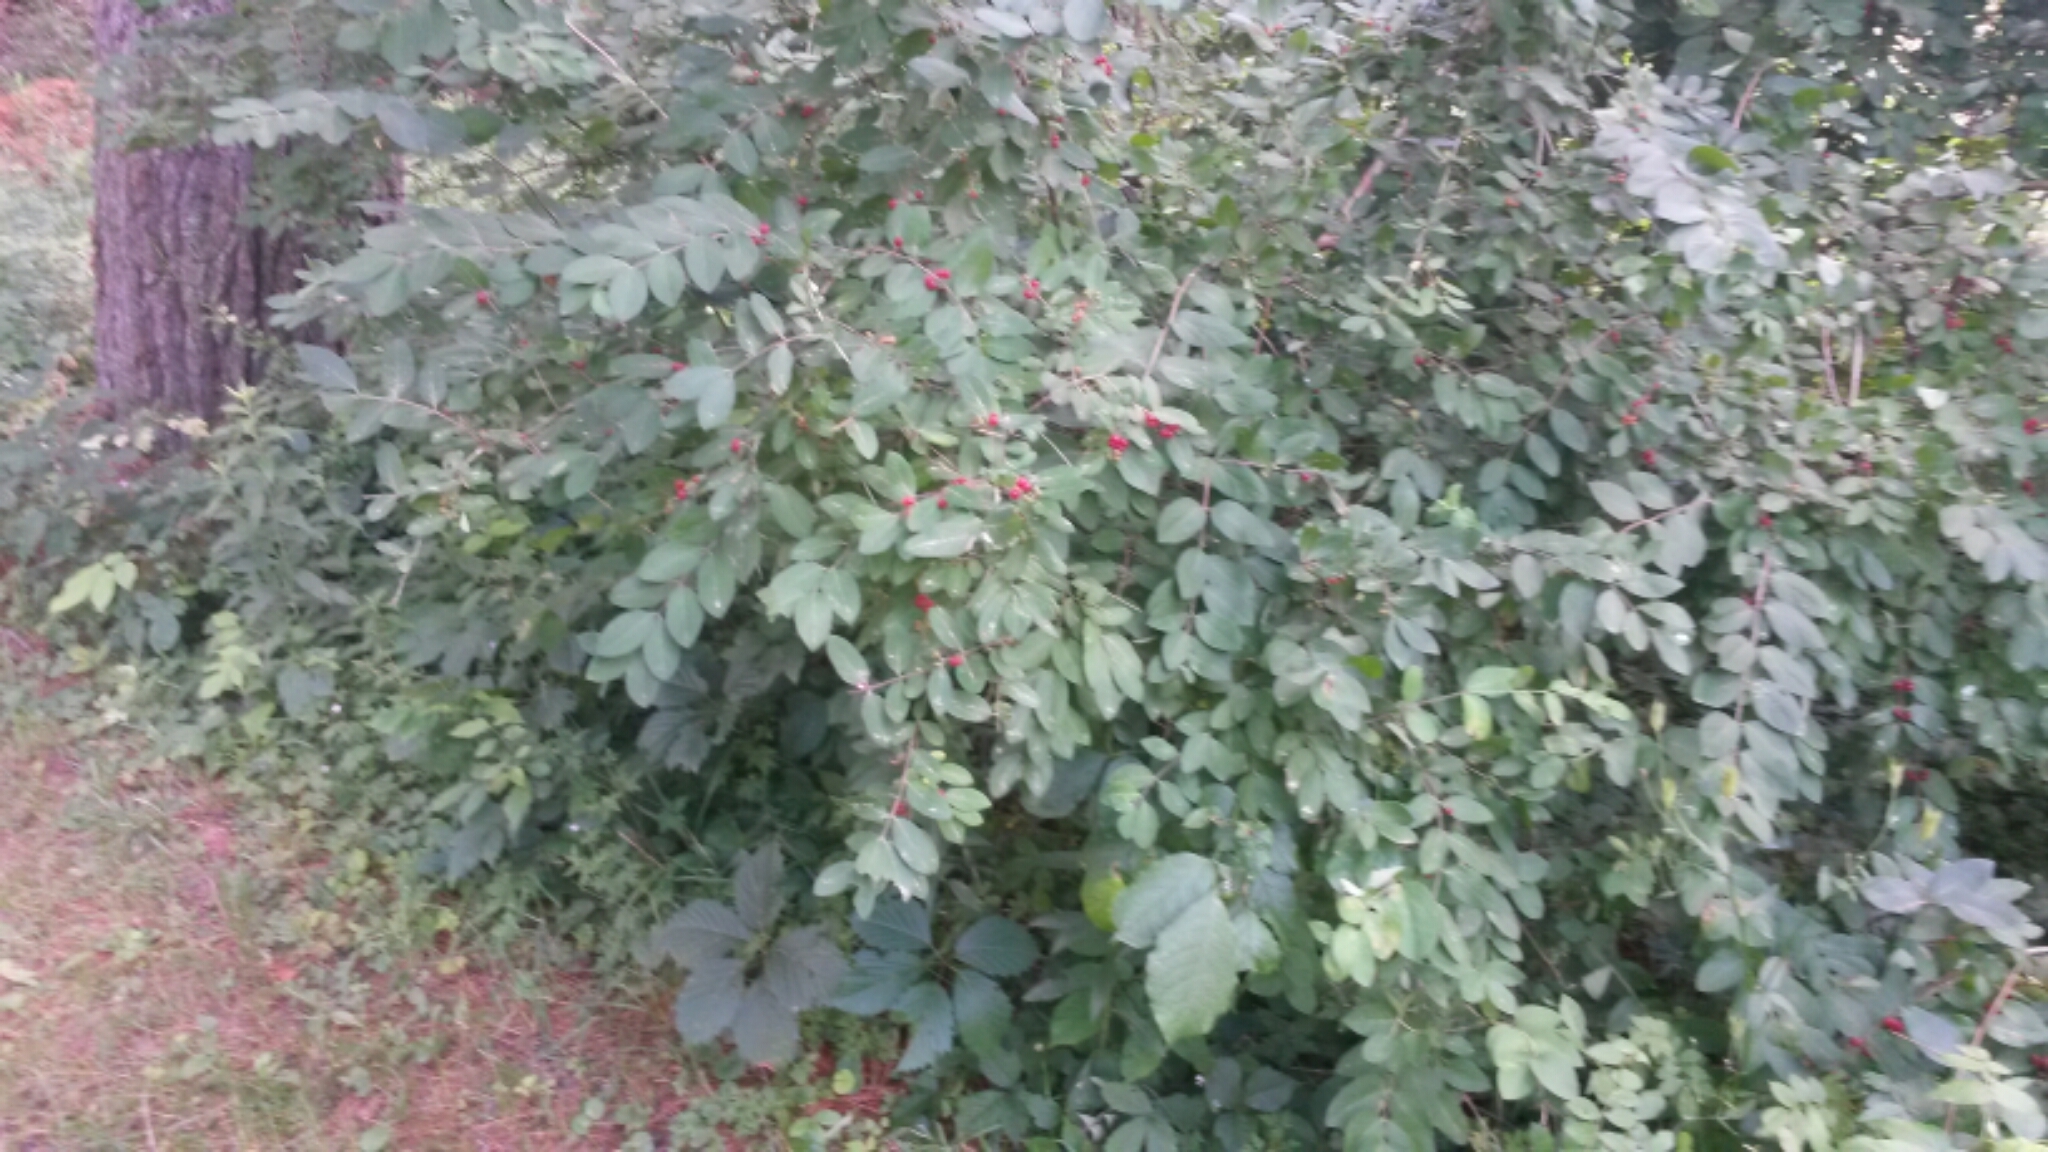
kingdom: Plantae
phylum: Tracheophyta
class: Magnoliopsida
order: Dipsacales
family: Caprifoliaceae
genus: Lonicera
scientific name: Lonicera morrowii
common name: Morrow's honeysuckle
